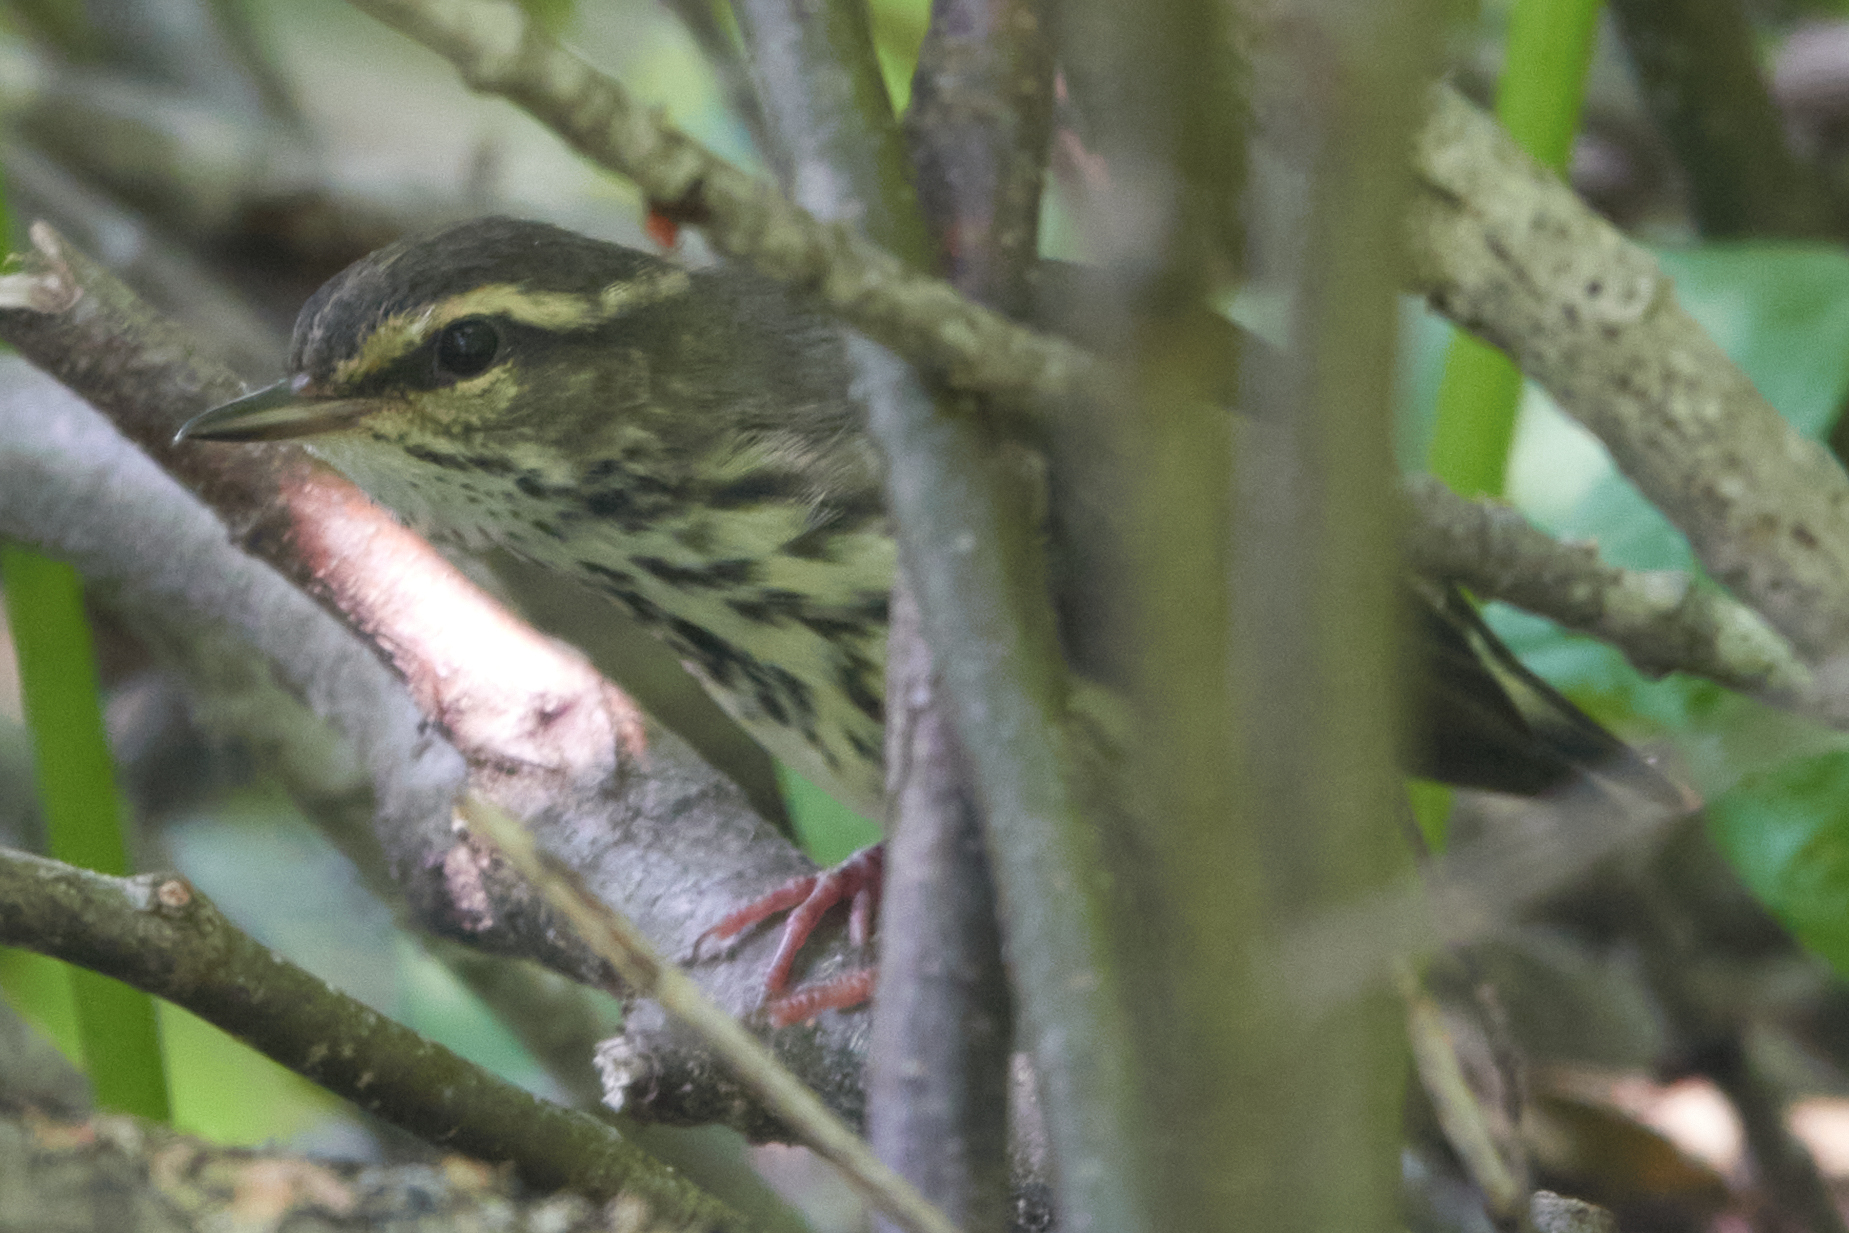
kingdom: Animalia
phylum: Chordata
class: Aves
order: Passeriformes
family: Parulidae
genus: Parkesia
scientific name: Parkesia noveboracensis
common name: Northern waterthrush
